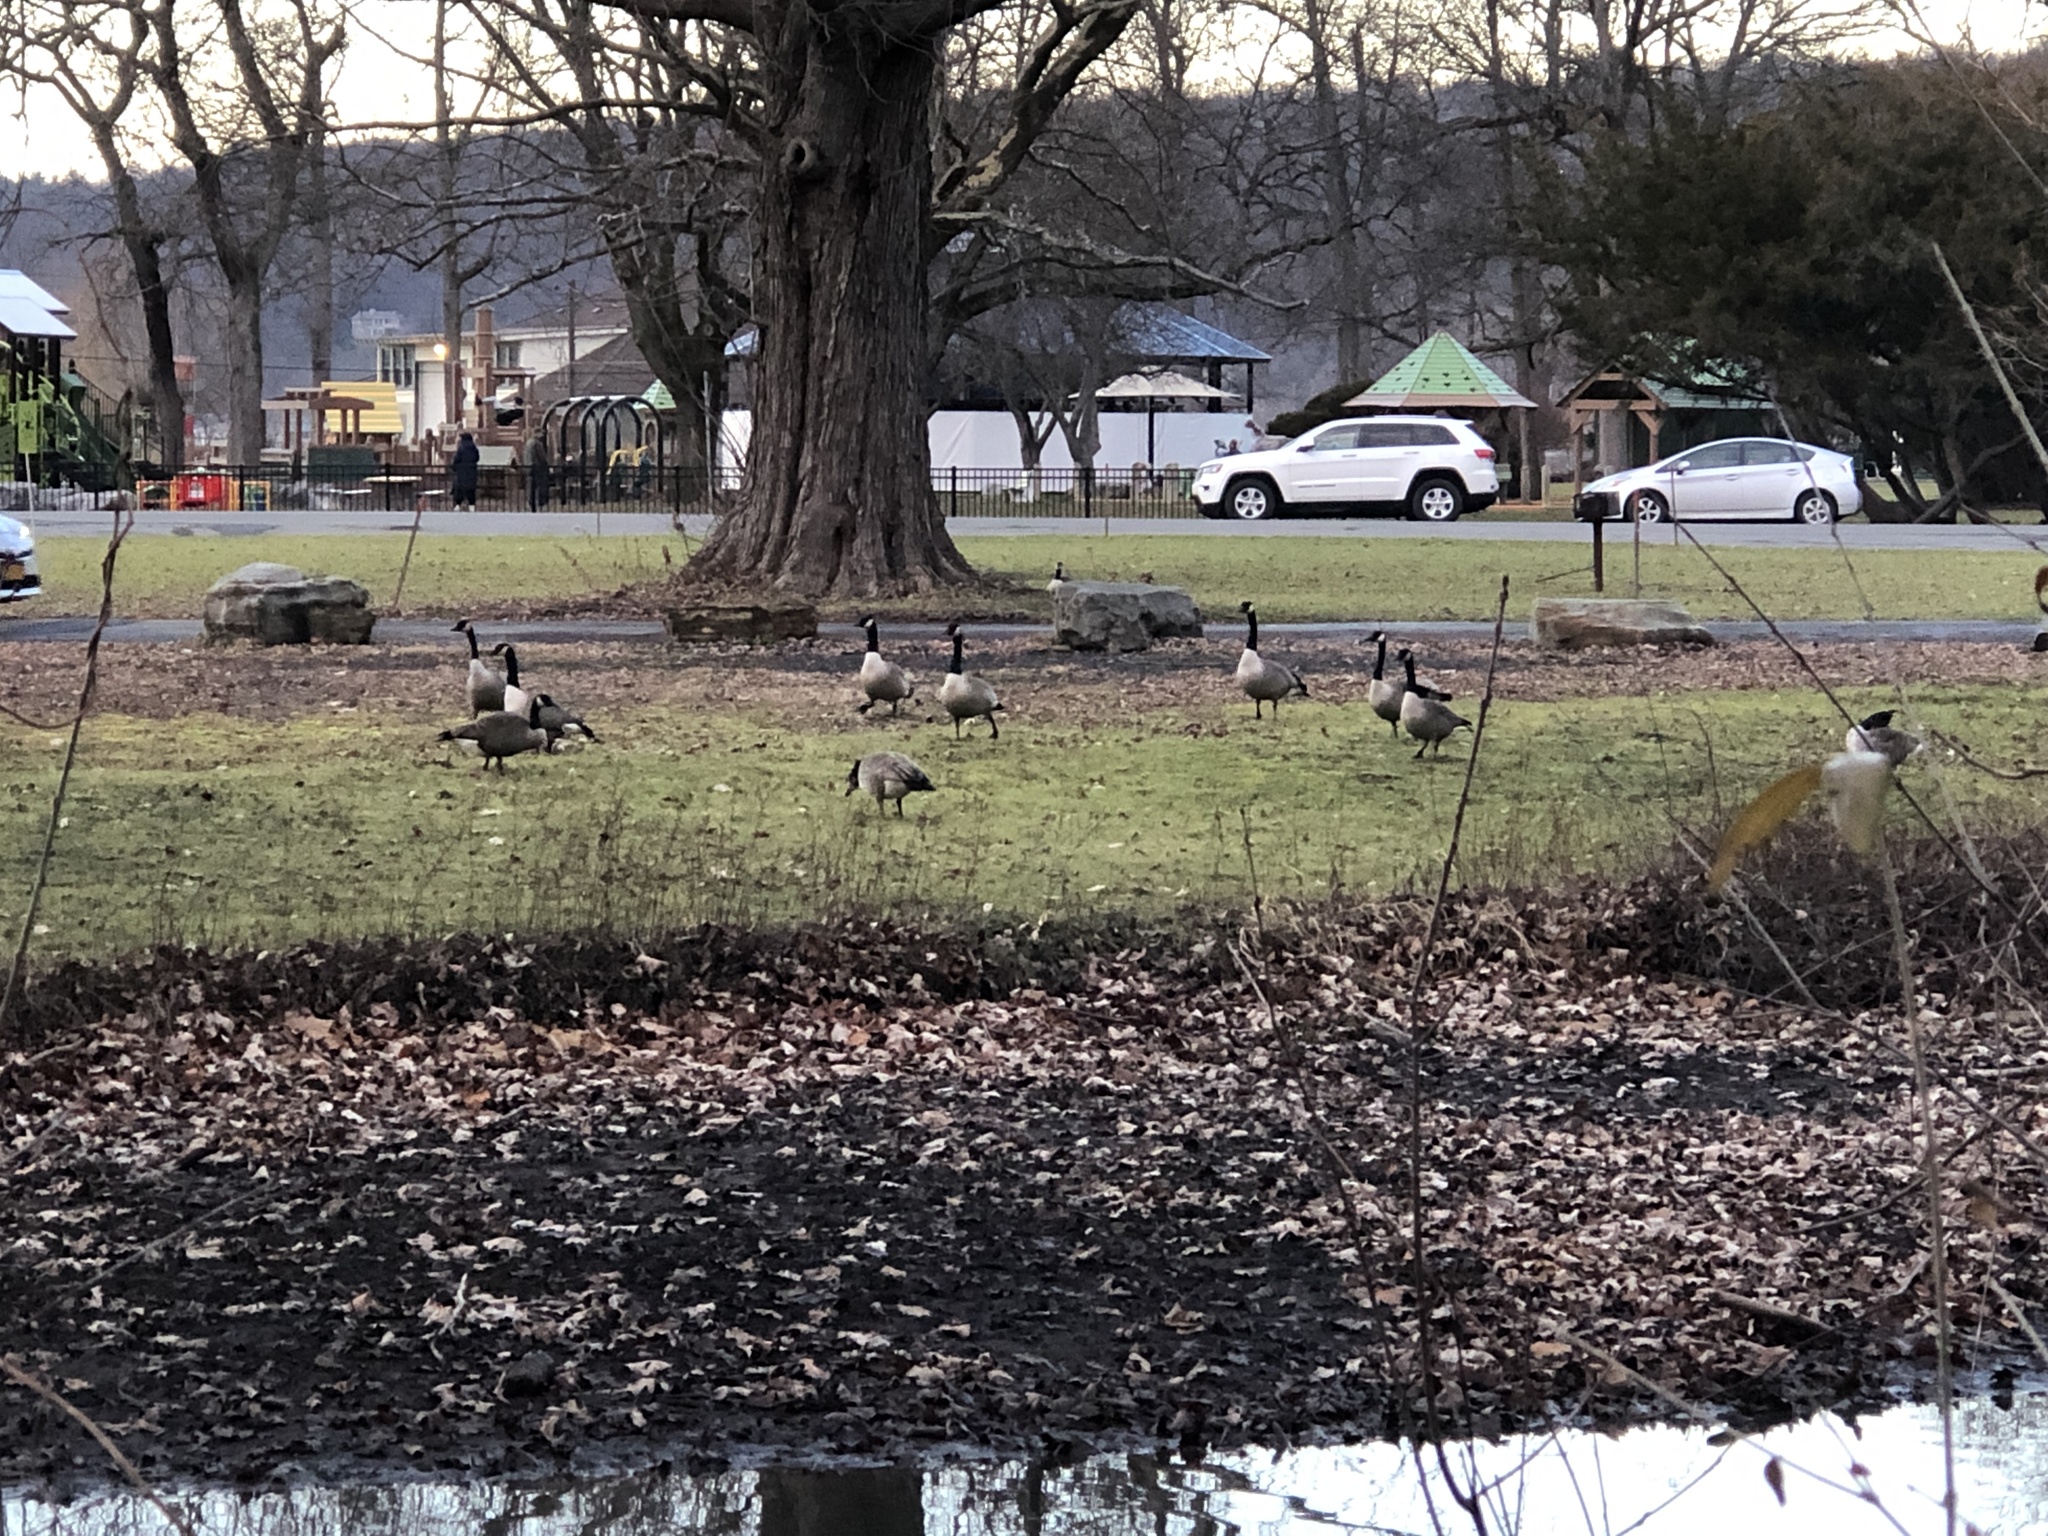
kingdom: Animalia
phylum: Chordata
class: Aves
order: Anseriformes
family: Anatidae
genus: Branta
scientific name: Branta canadensis
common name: Canada goose
